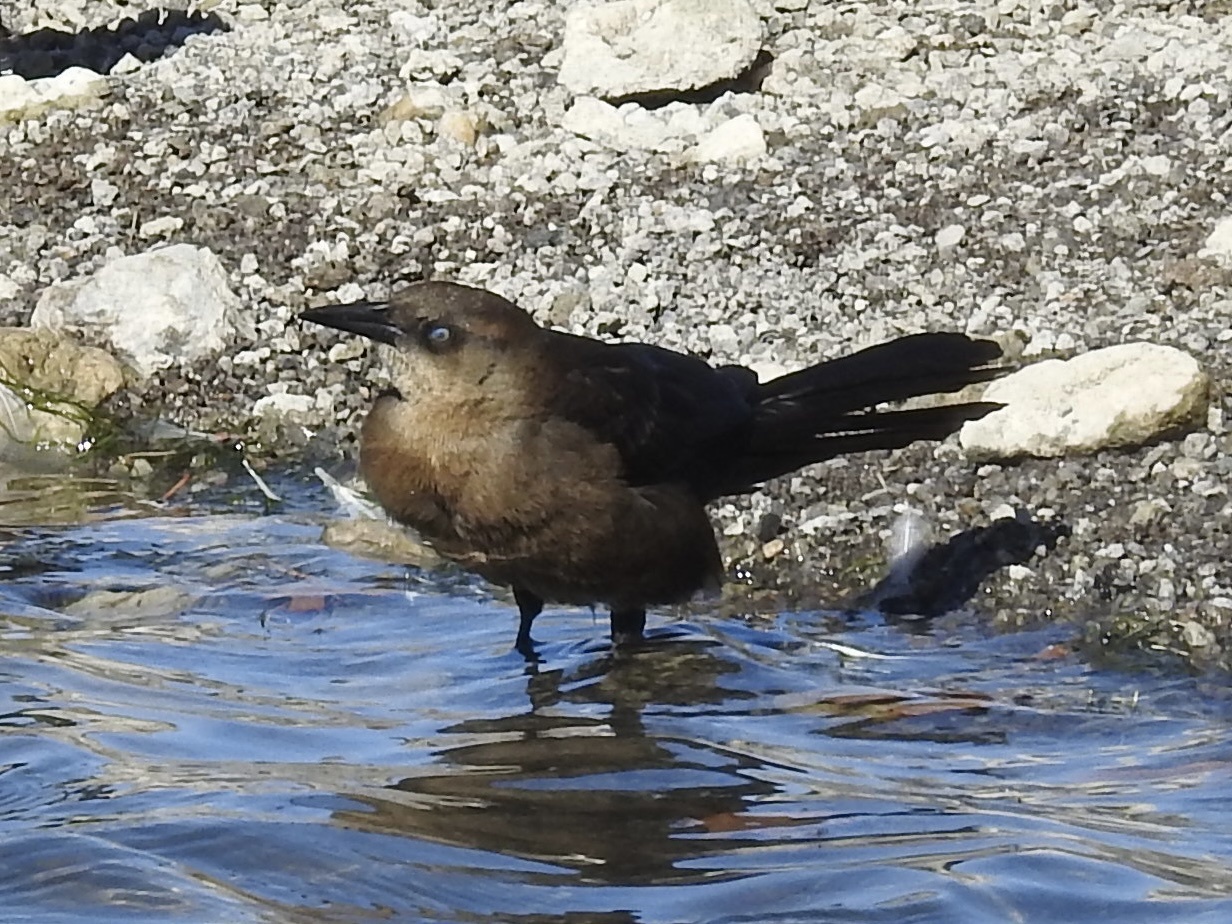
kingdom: Animalia
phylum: Chordata
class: Aves
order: Passeriformes
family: Icteridae
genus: Quiscalus
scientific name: Quiscalus mexicanus
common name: Great-tailed grackle
